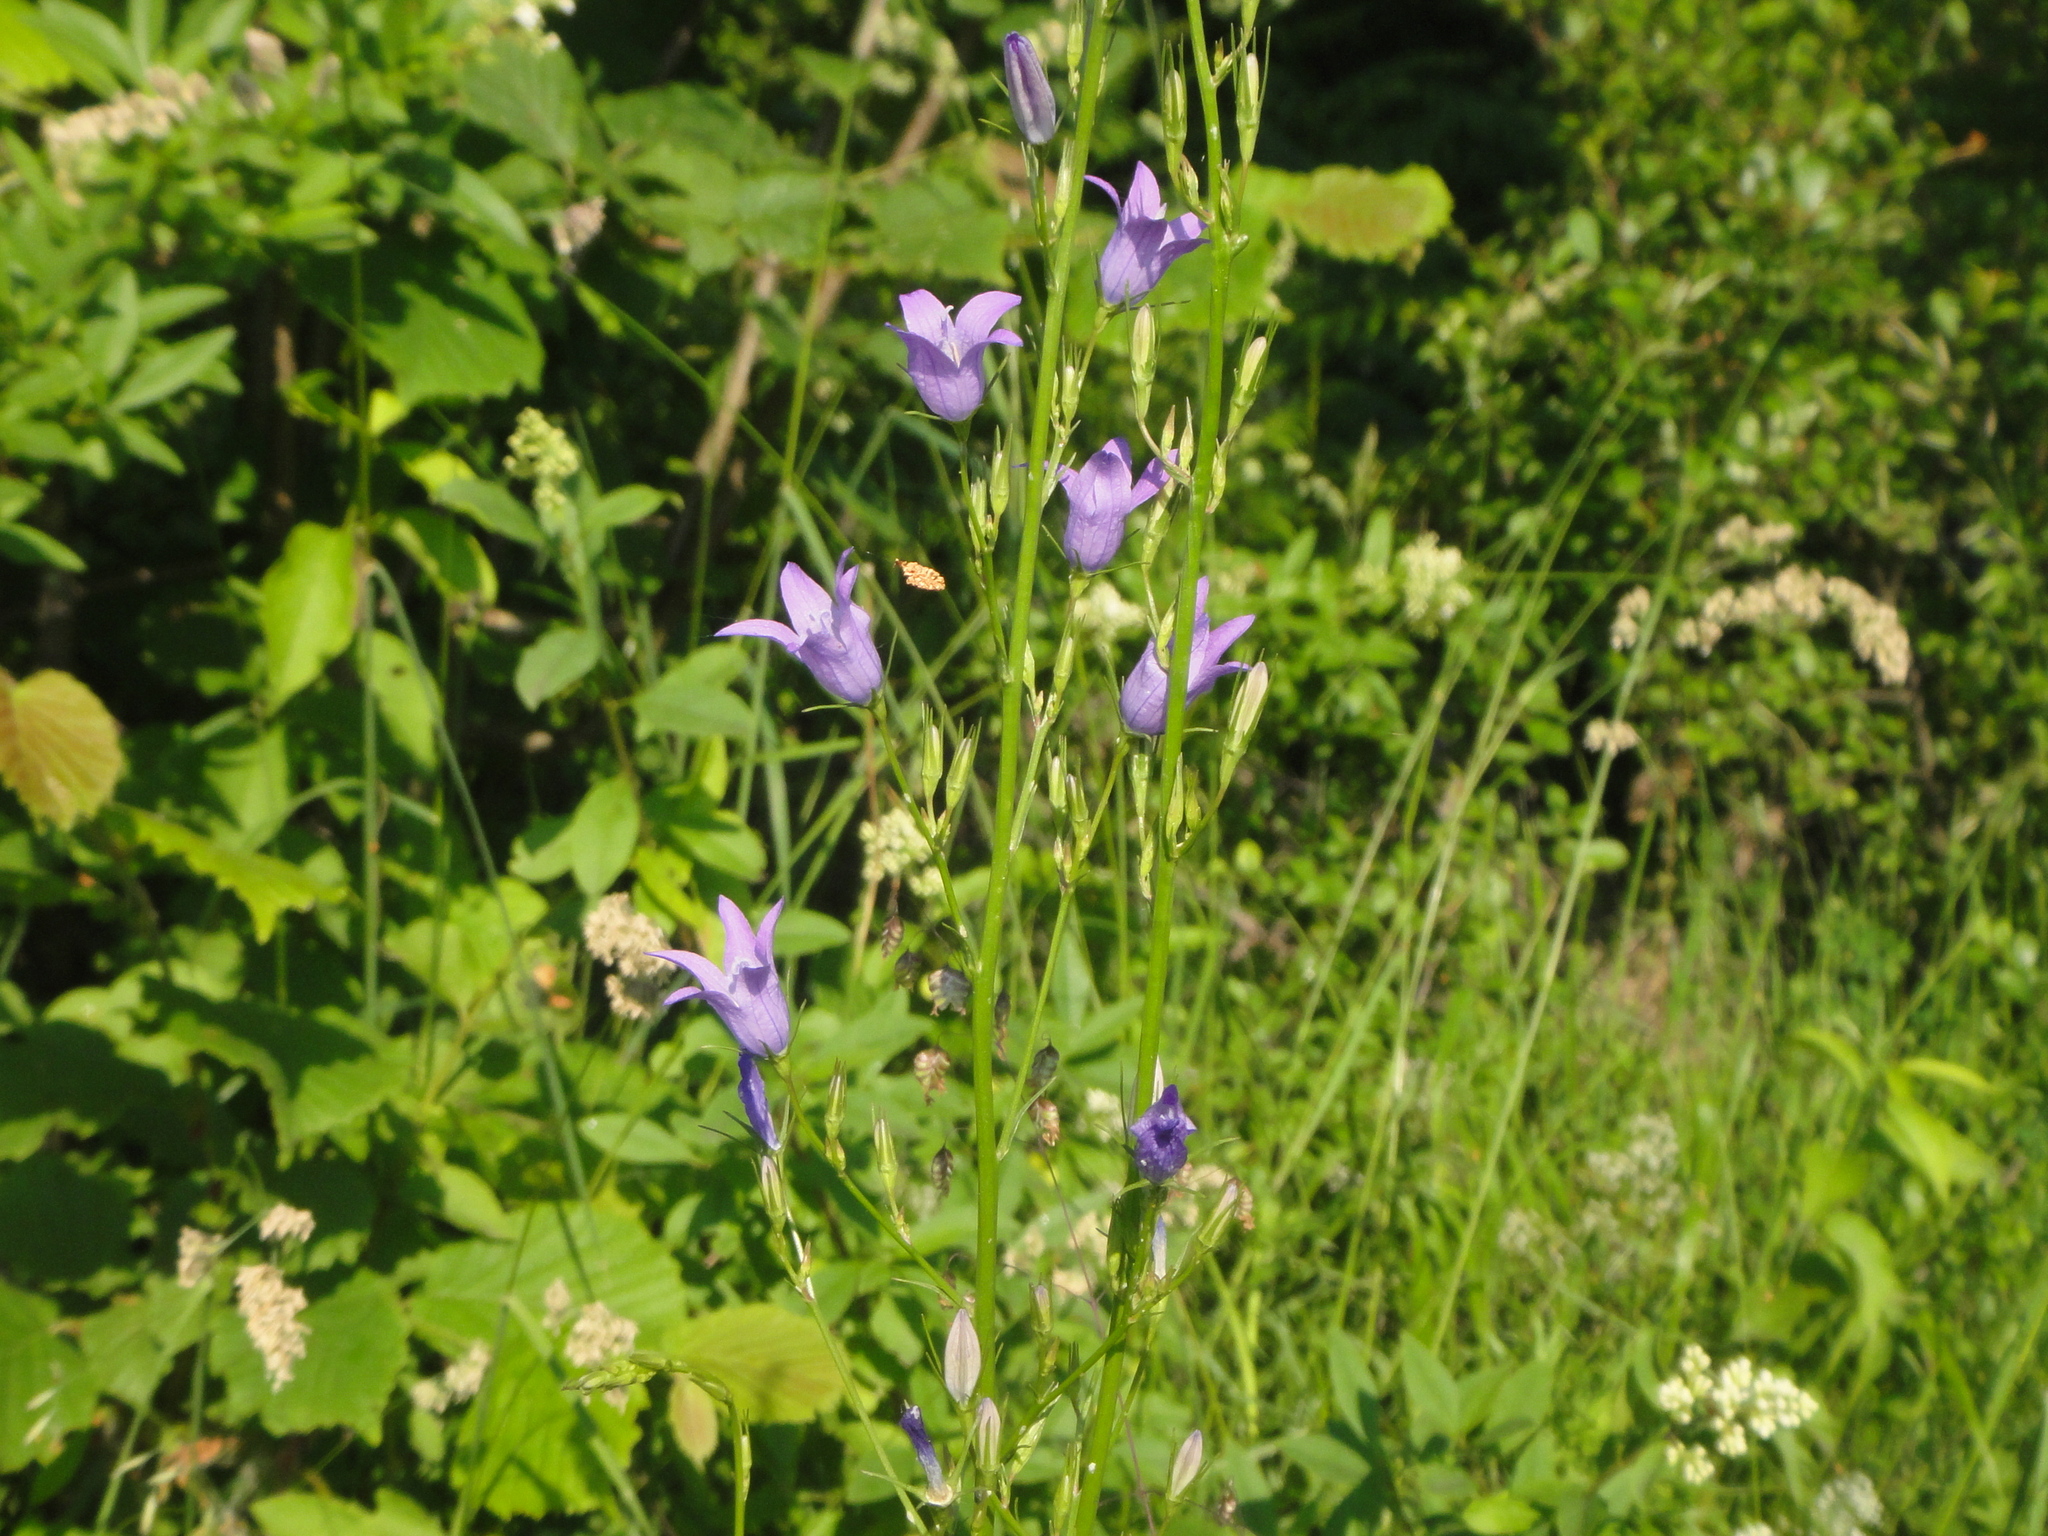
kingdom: Plantae
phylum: Tracheophyta
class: Magnoliopsida
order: Asterales
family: Campanulaceae
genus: Campanula
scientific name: Campanula rapunculus
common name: Rampion bellflower
